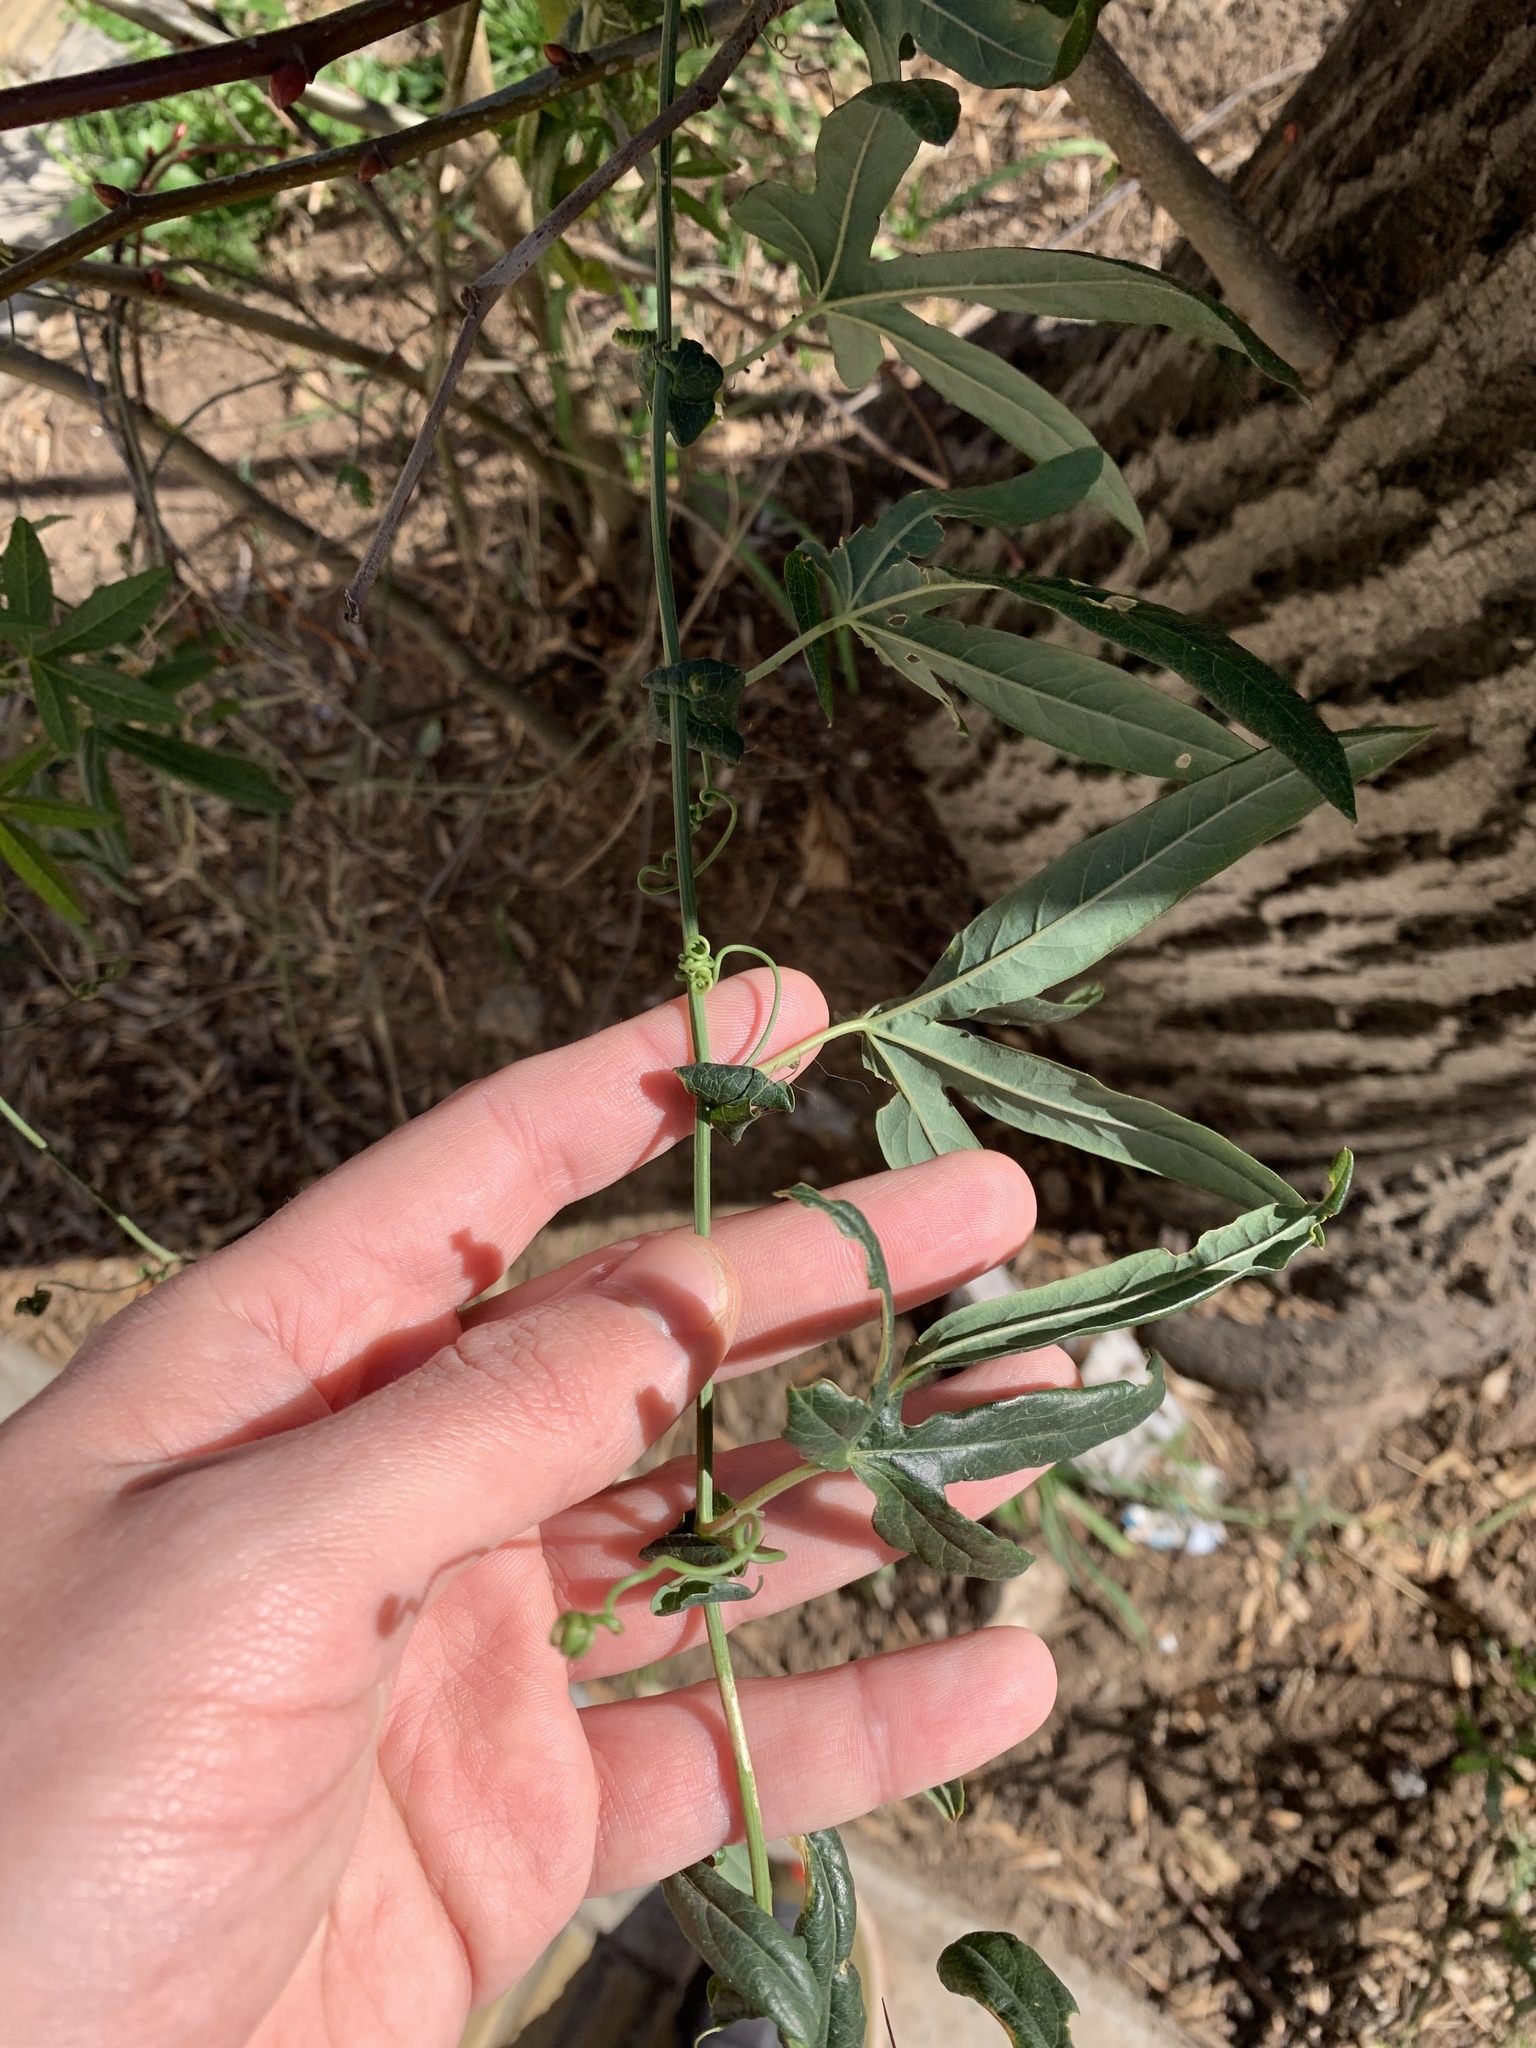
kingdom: Plantae
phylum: Tracheophyta
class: Magnoliopsida
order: Malpighiales
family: Passifloraceae
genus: Passiflora
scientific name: Passiflora caerulea
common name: Blue passionflower
